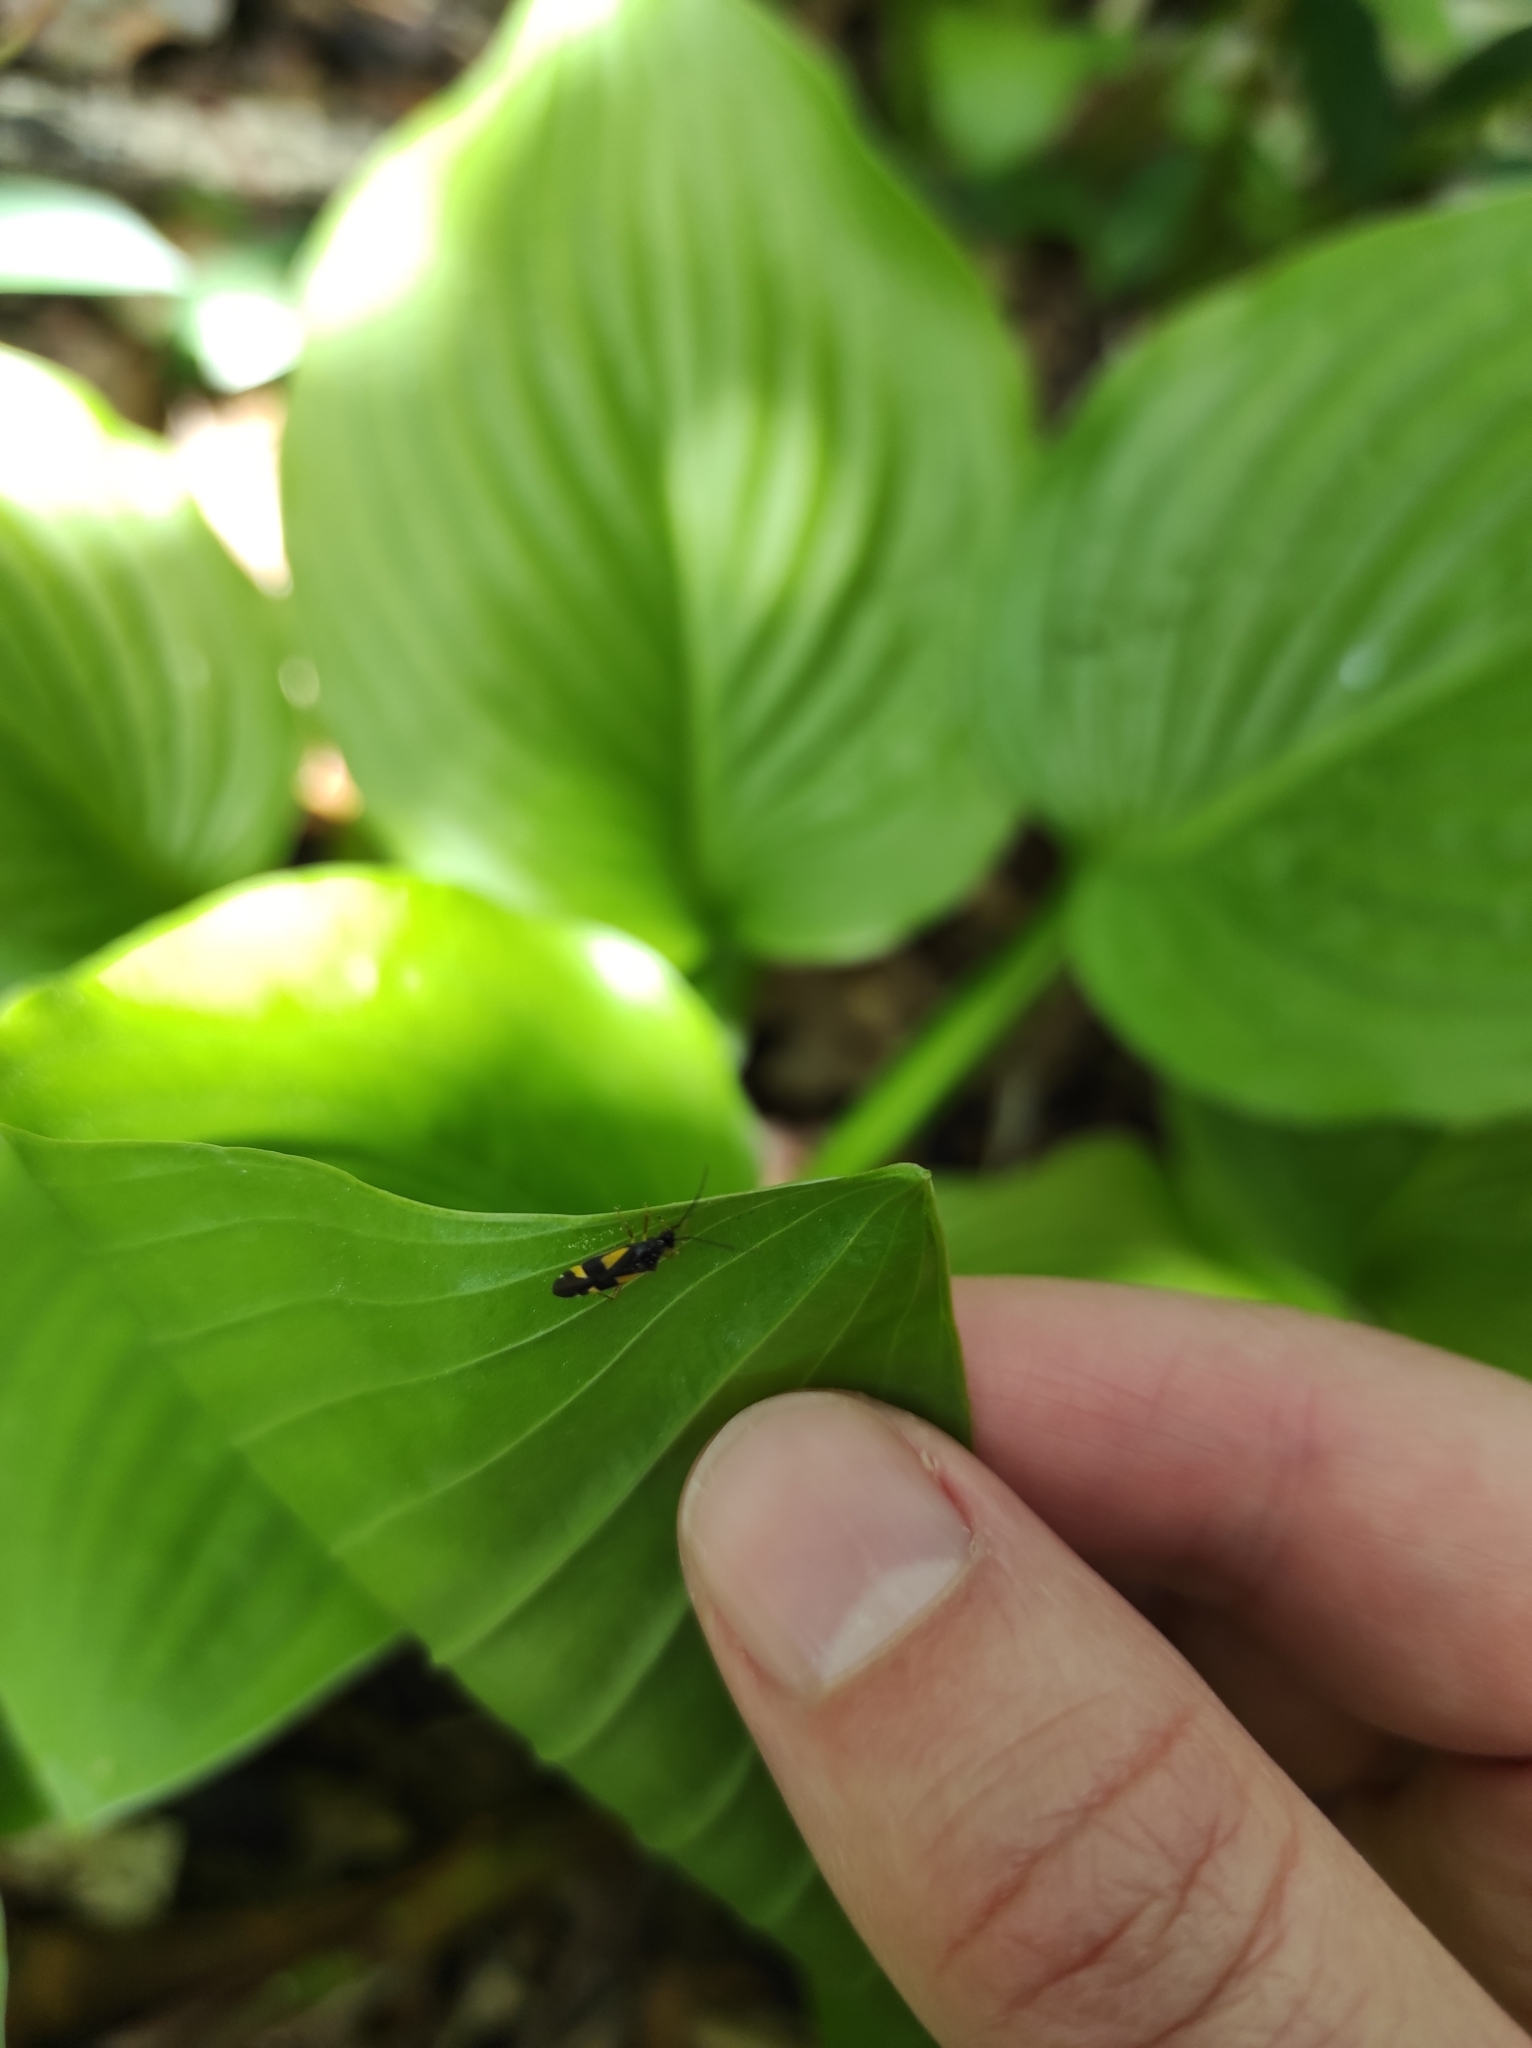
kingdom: Animalia
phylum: Arthropoda
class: Insecta
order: Hemiptera
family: Miridae
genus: Dryophilocoris
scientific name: Dryophilocoris flavoquadrimaculatus
